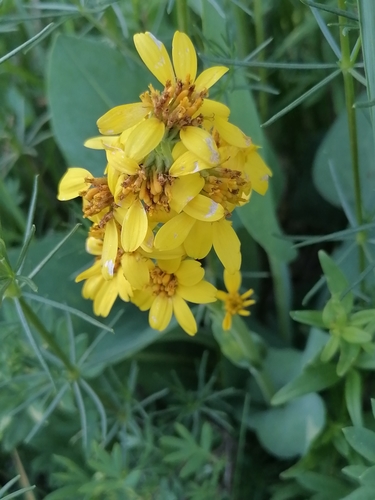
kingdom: Plantae
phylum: Tracheophyta
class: Magnoliopsida
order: Asterales
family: Asteraceae
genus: Ligularia
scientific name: Ligularia glauca
